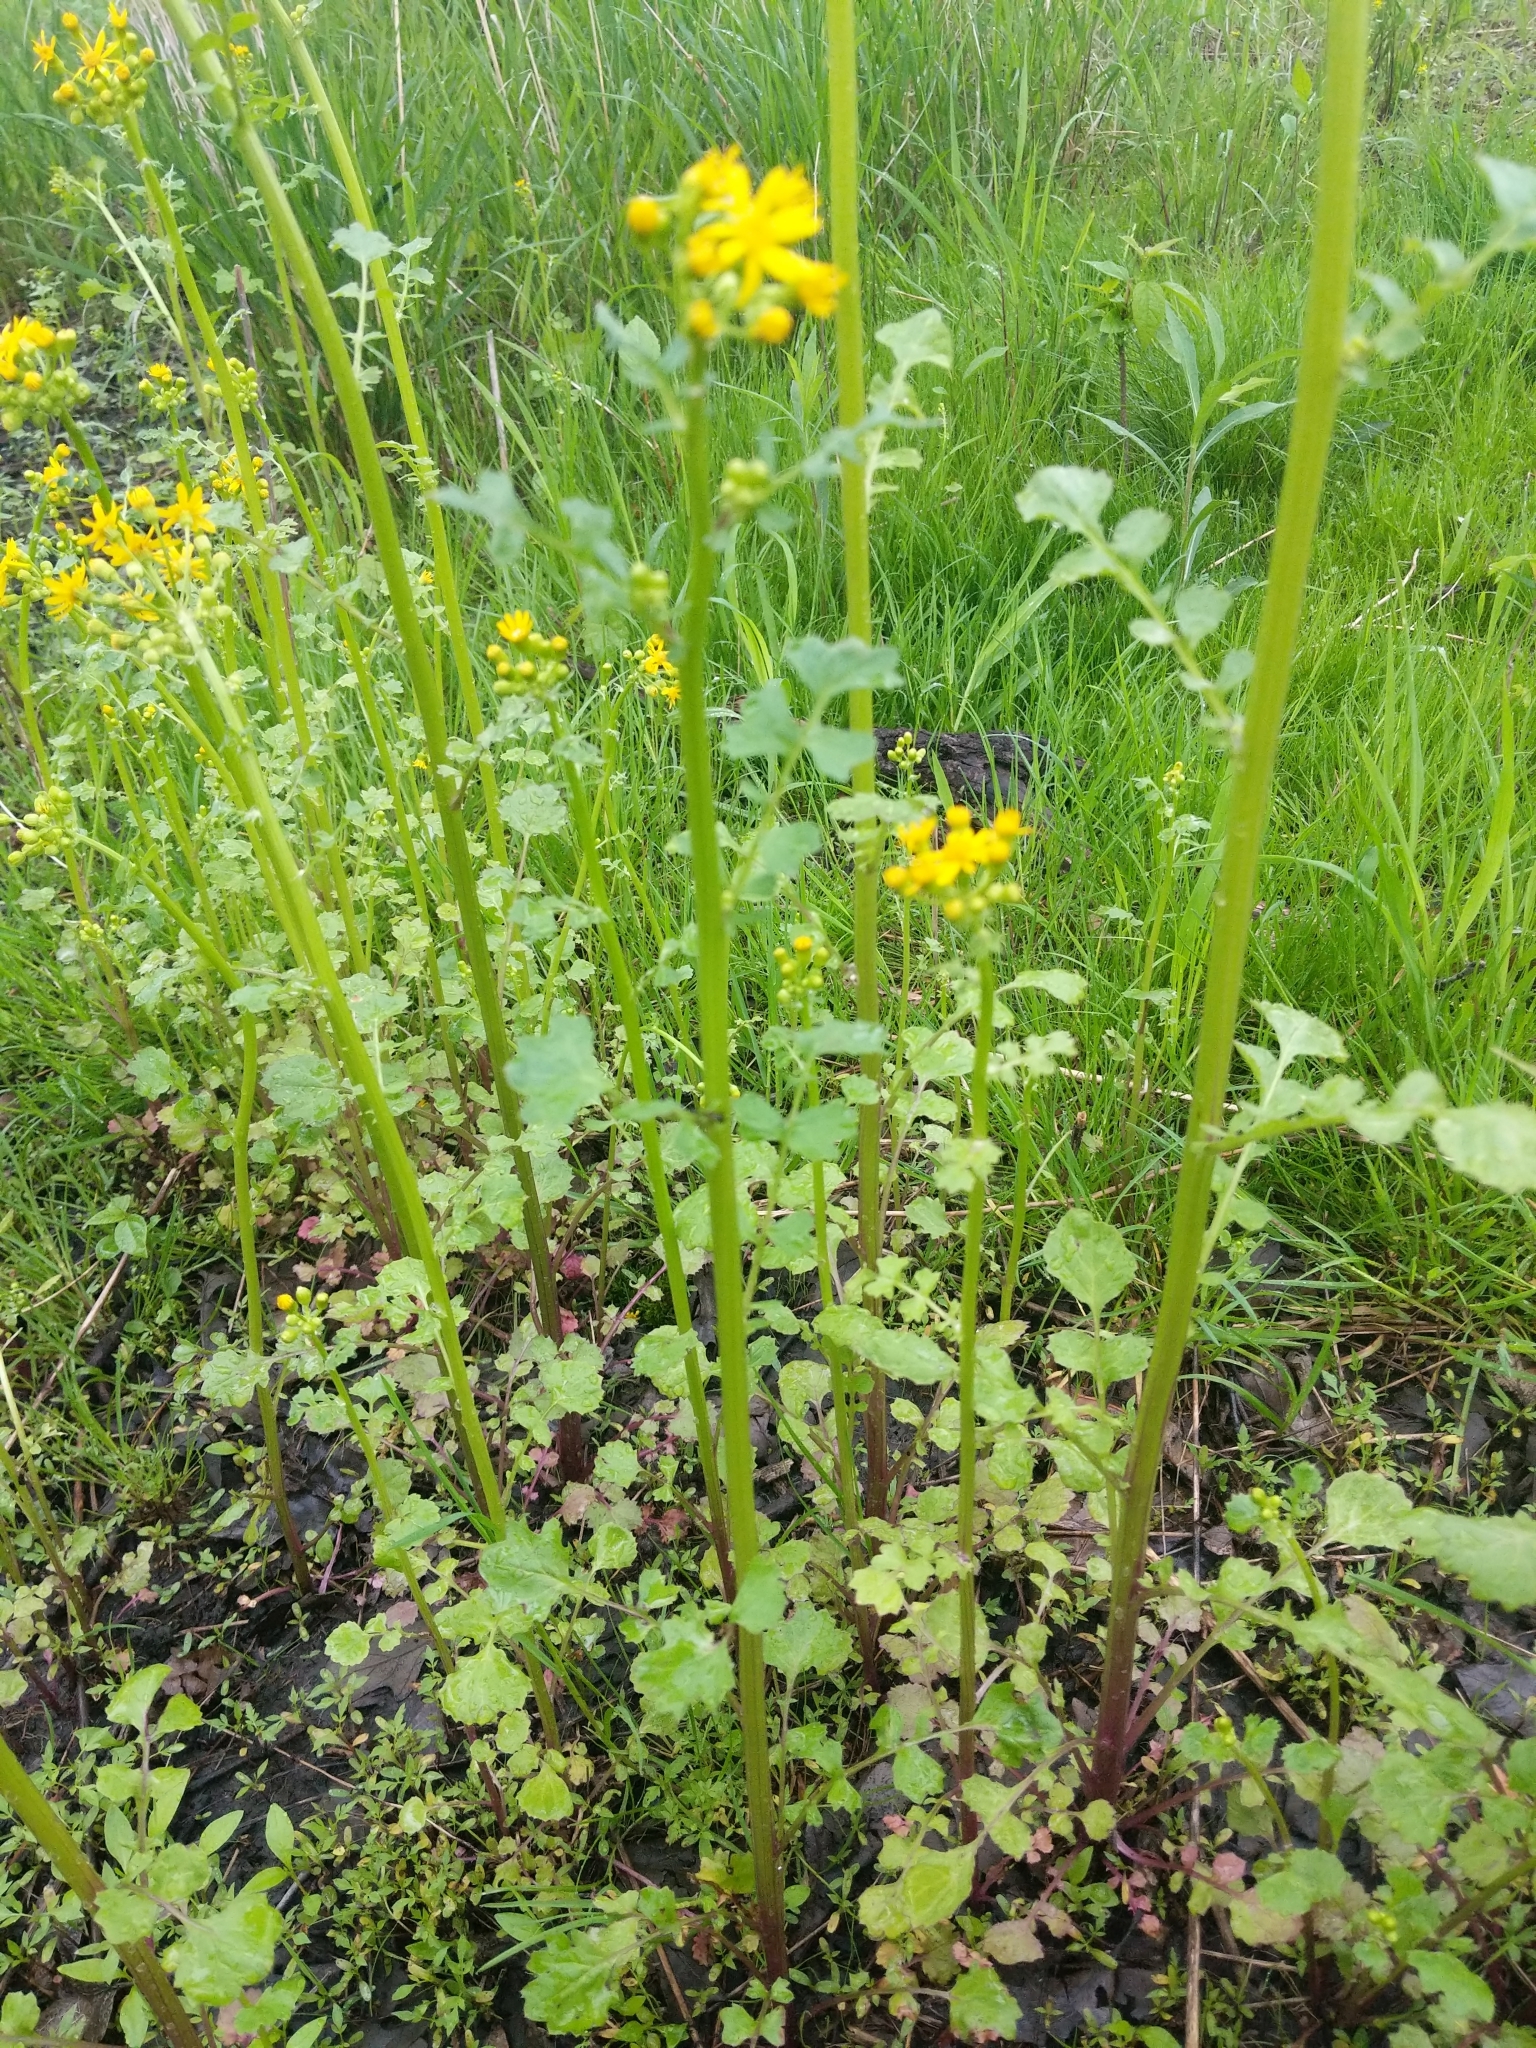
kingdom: Plantae
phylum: Tracheophyta
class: Magnoliopsida
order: Asterales
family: Asteraceae
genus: Packera
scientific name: Packera glabella
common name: Butterweed
